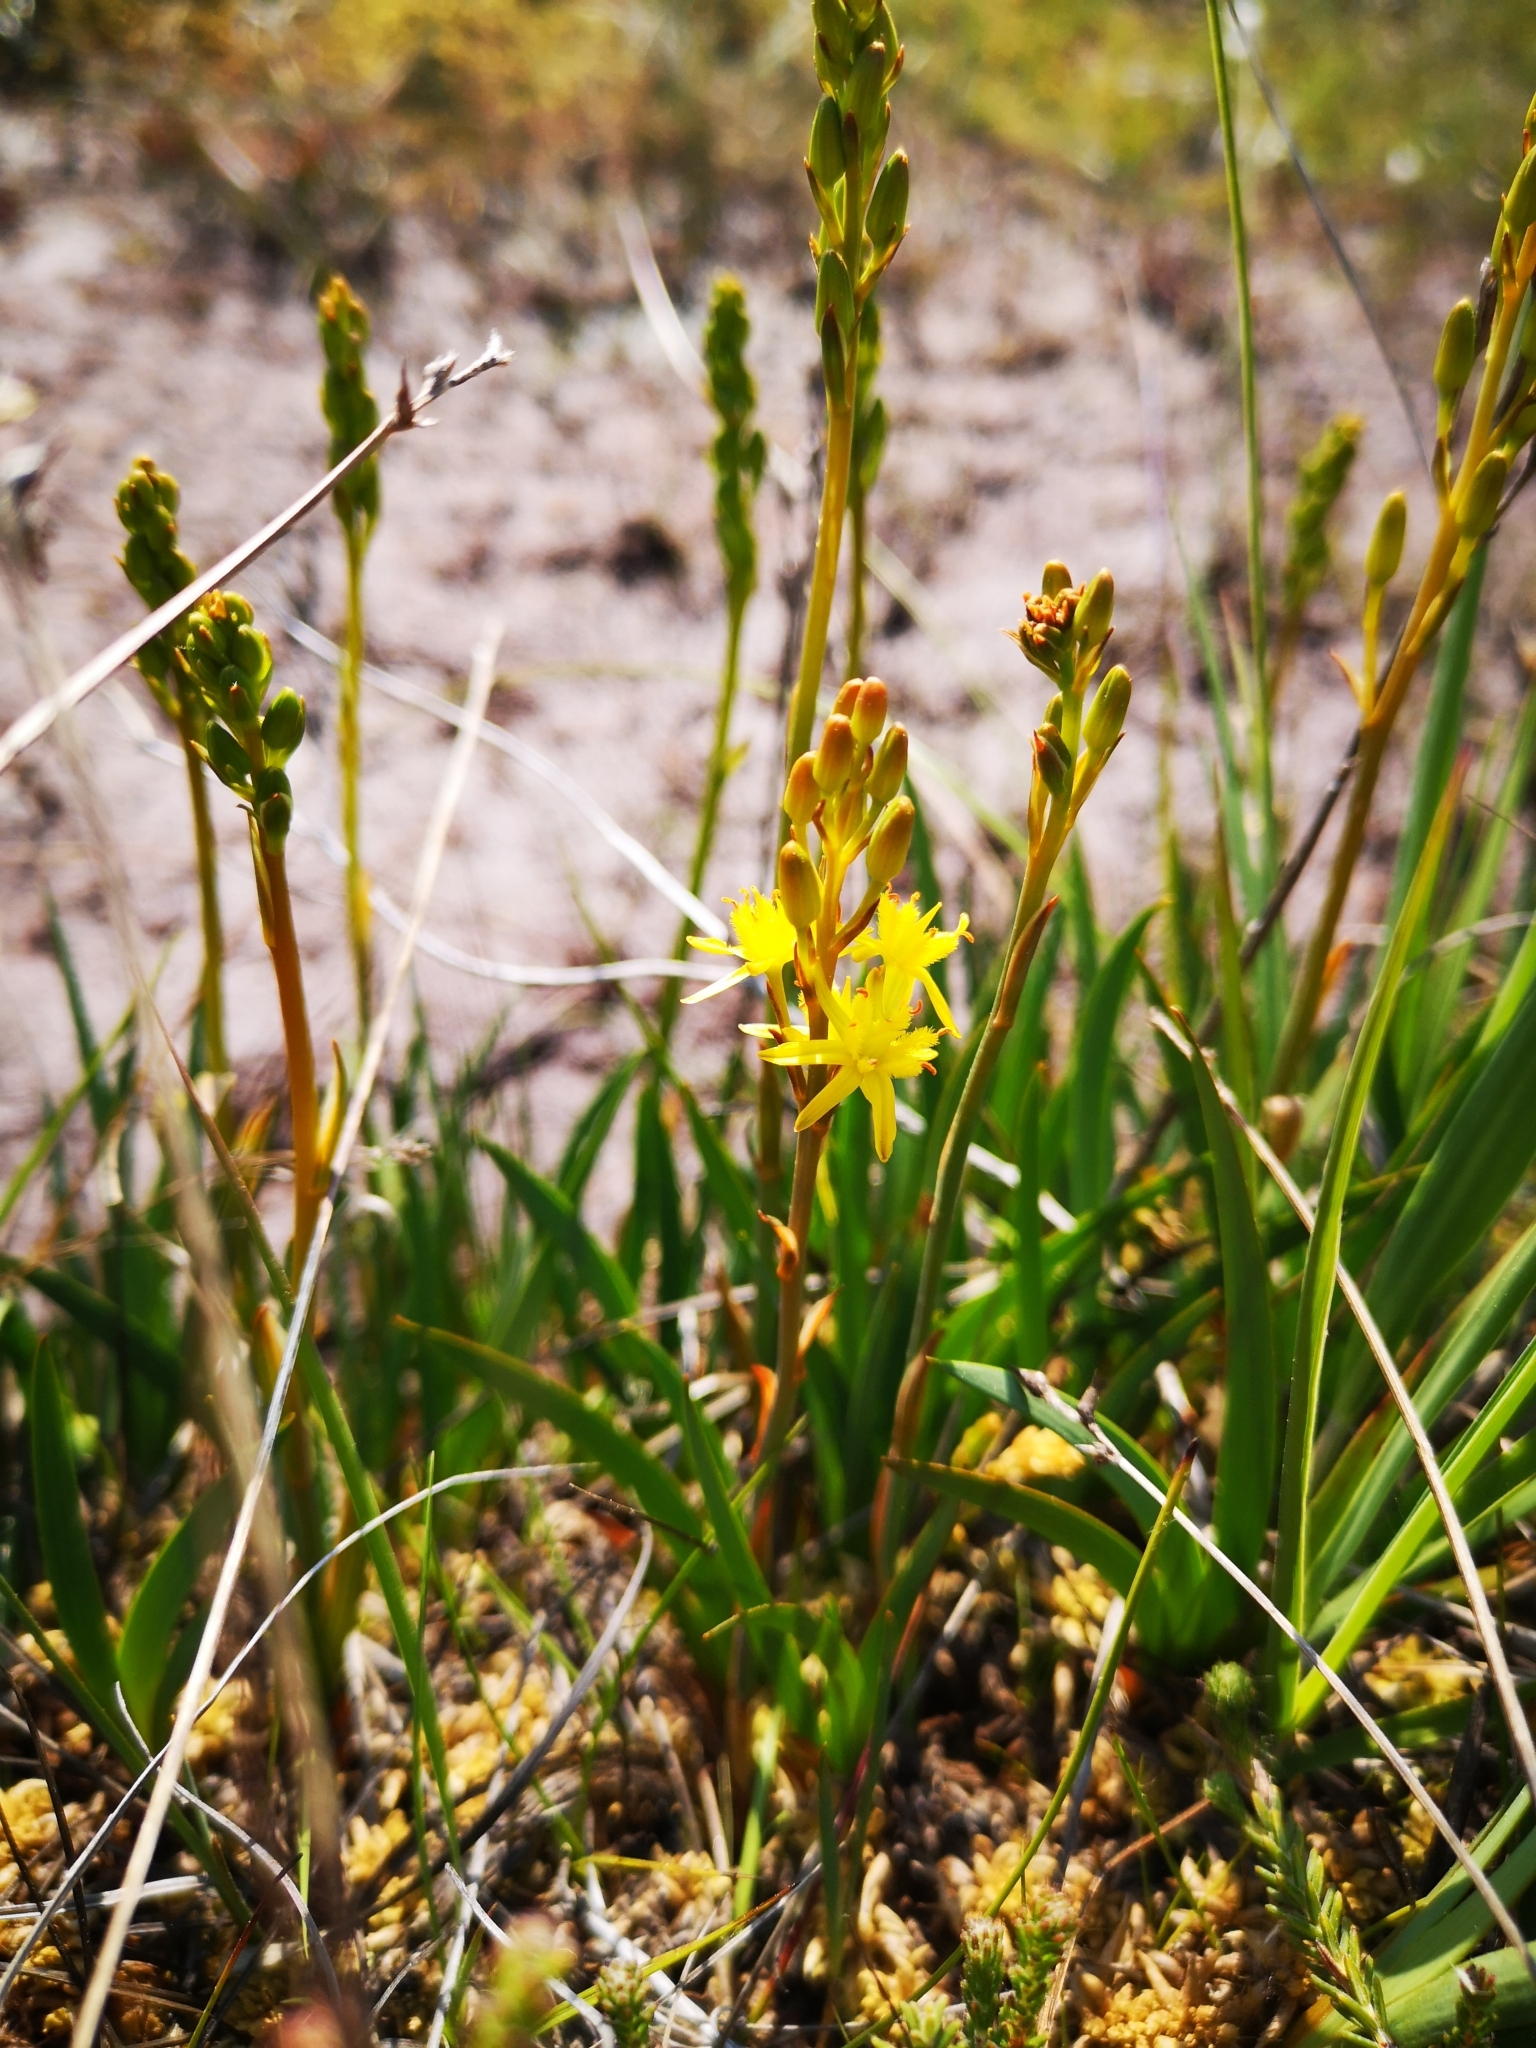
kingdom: Plantae
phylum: Tracheophyta
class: Liliopsida
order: Dioscoreales
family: Nartheciaceae
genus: Narthecium
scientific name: Narthecium ossifragum
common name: Bog asphodel
